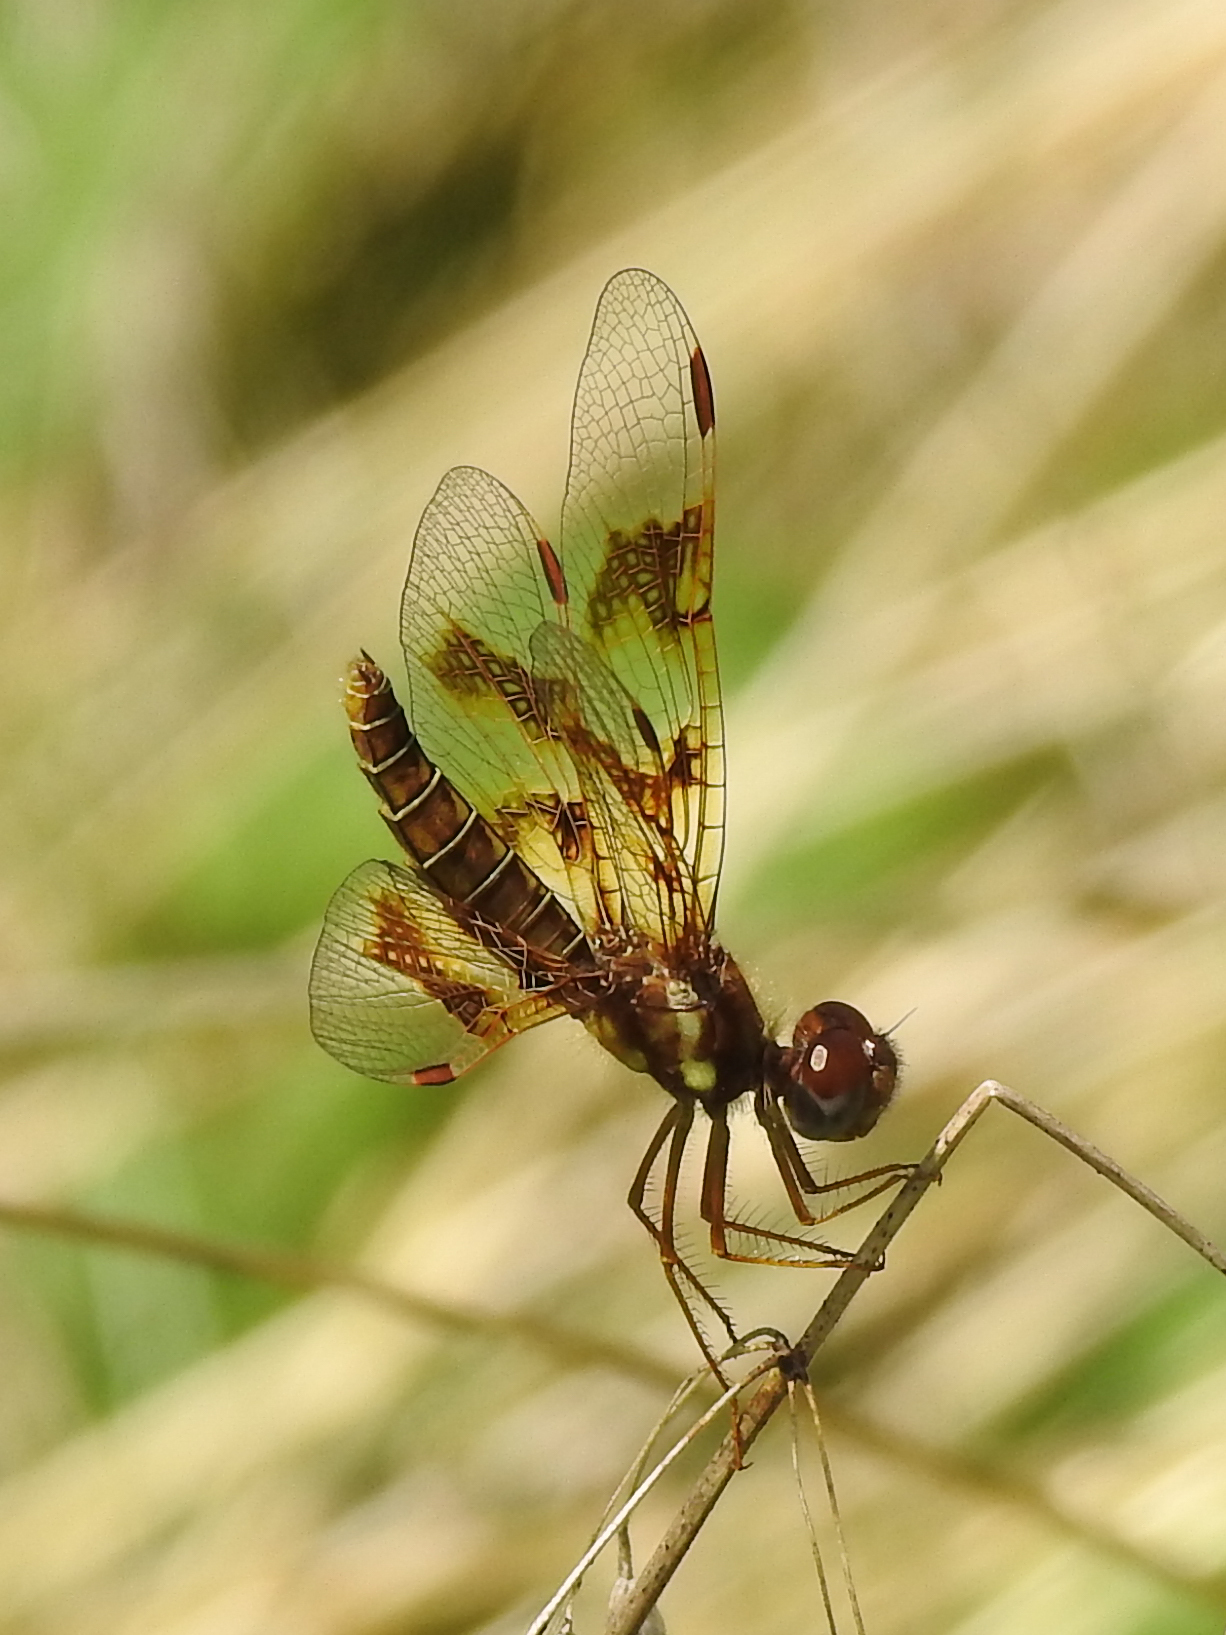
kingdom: Animalia
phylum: Arthropoda
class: Insecta
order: Odonata
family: Libellulidae
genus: Perithemis
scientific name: Perithemis tenera
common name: Eastern amberwing
